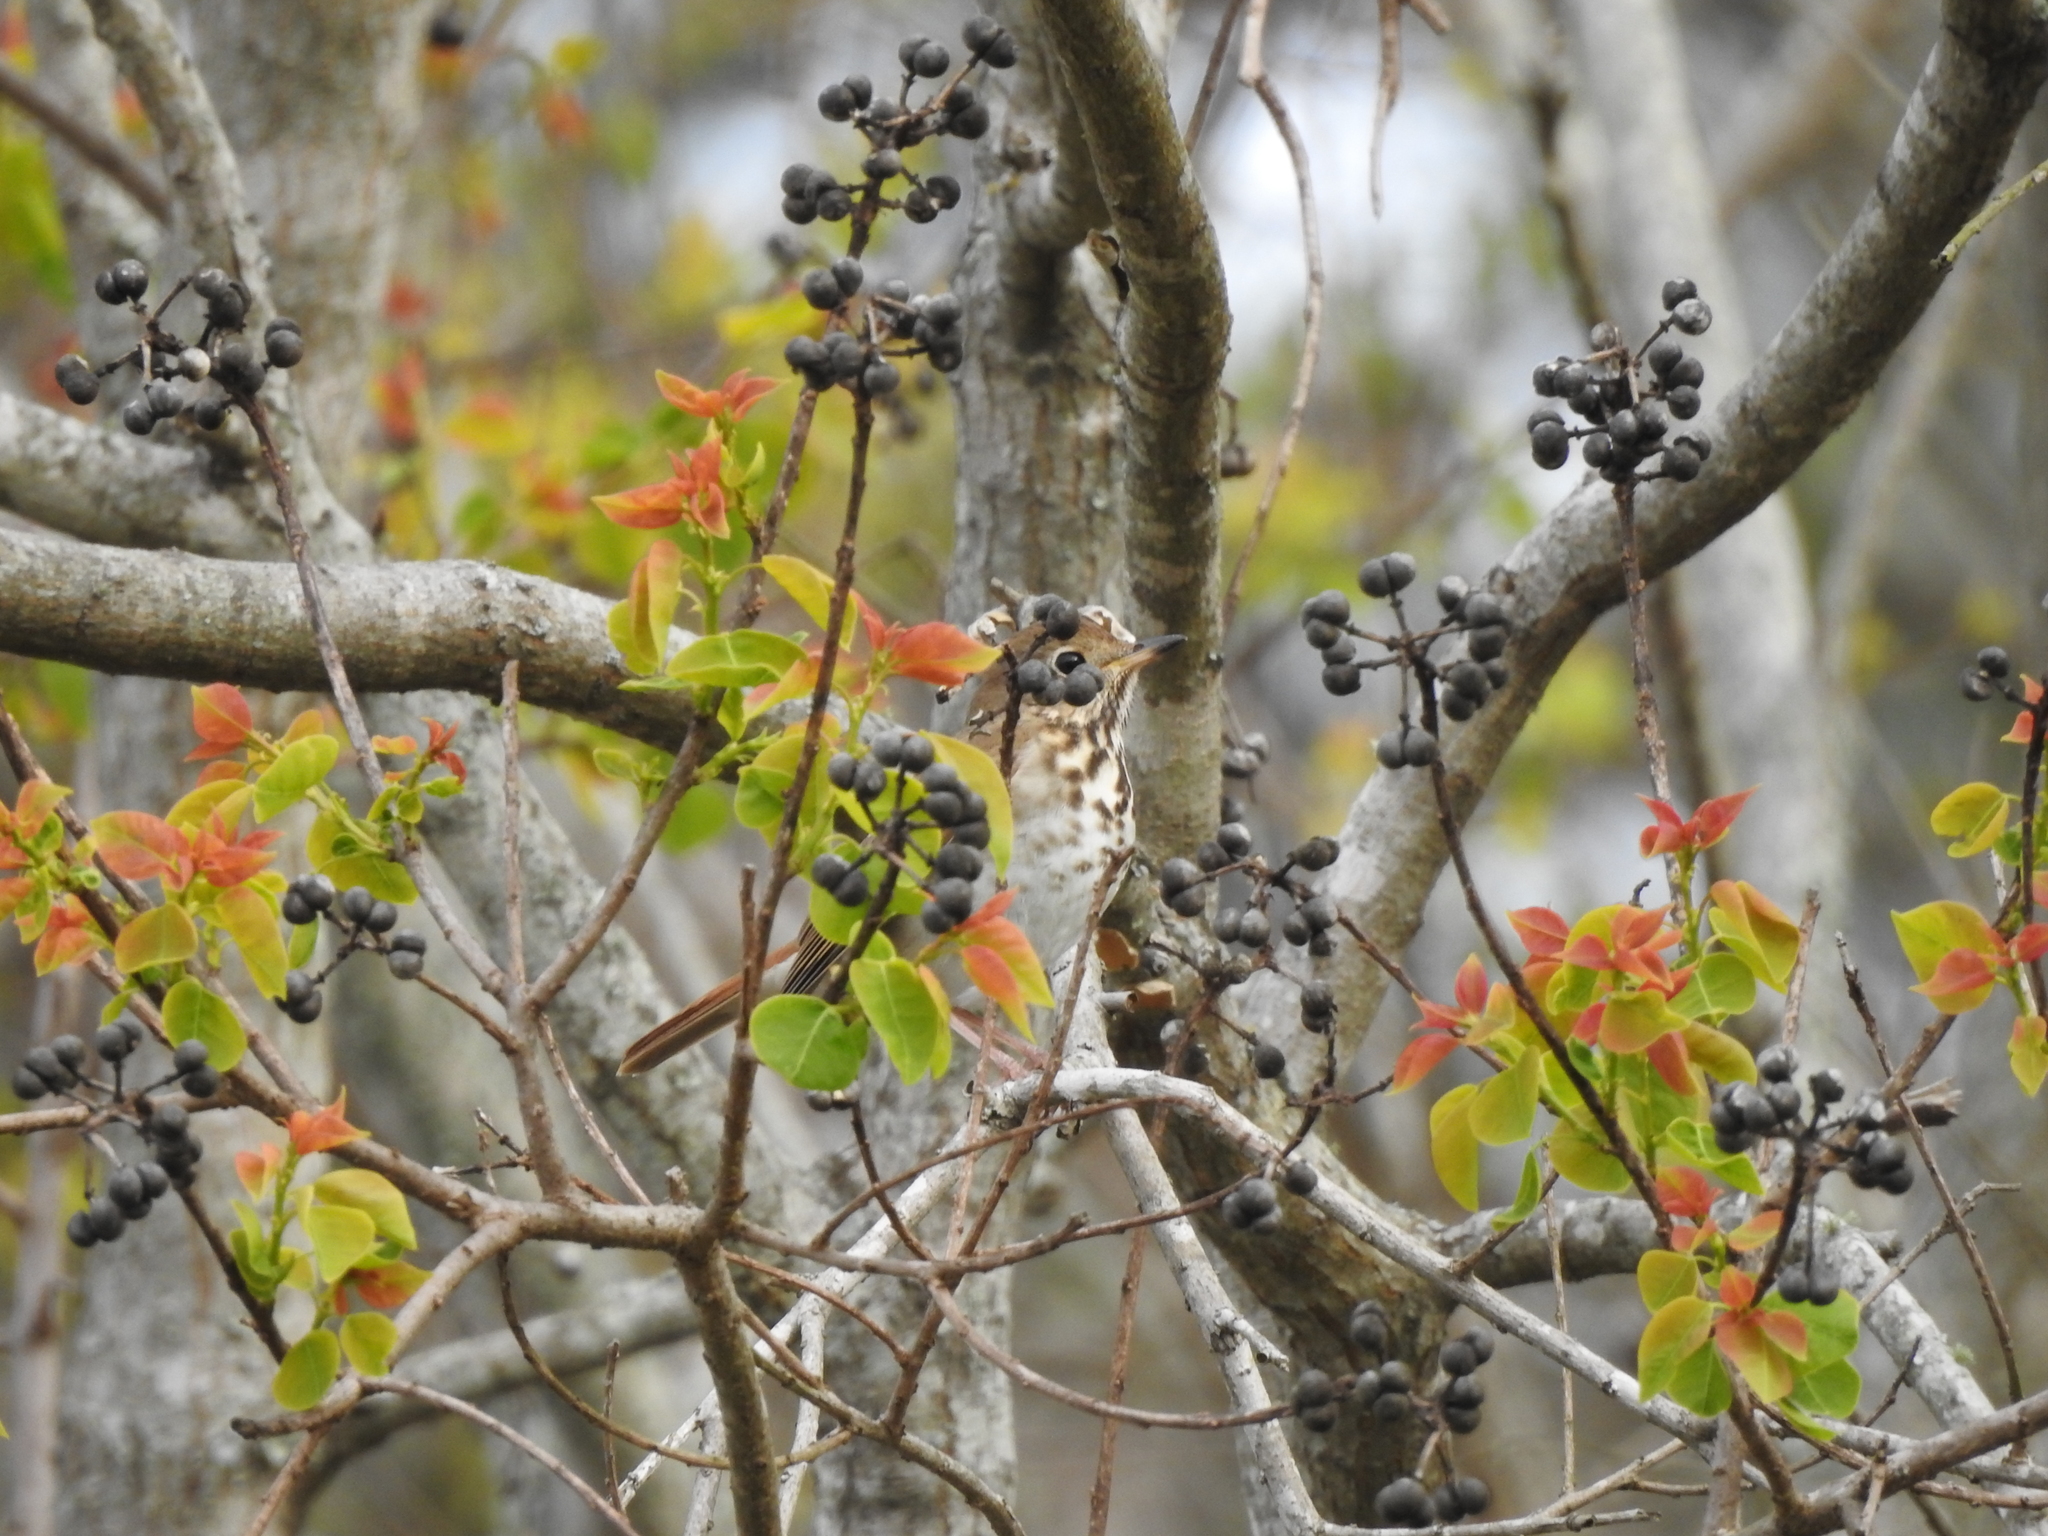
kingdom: Animalia
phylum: Chordata
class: Aves
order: Passeriformes
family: Turdidae
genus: Catharus
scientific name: Catharus guttatus
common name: Hermit thrush
